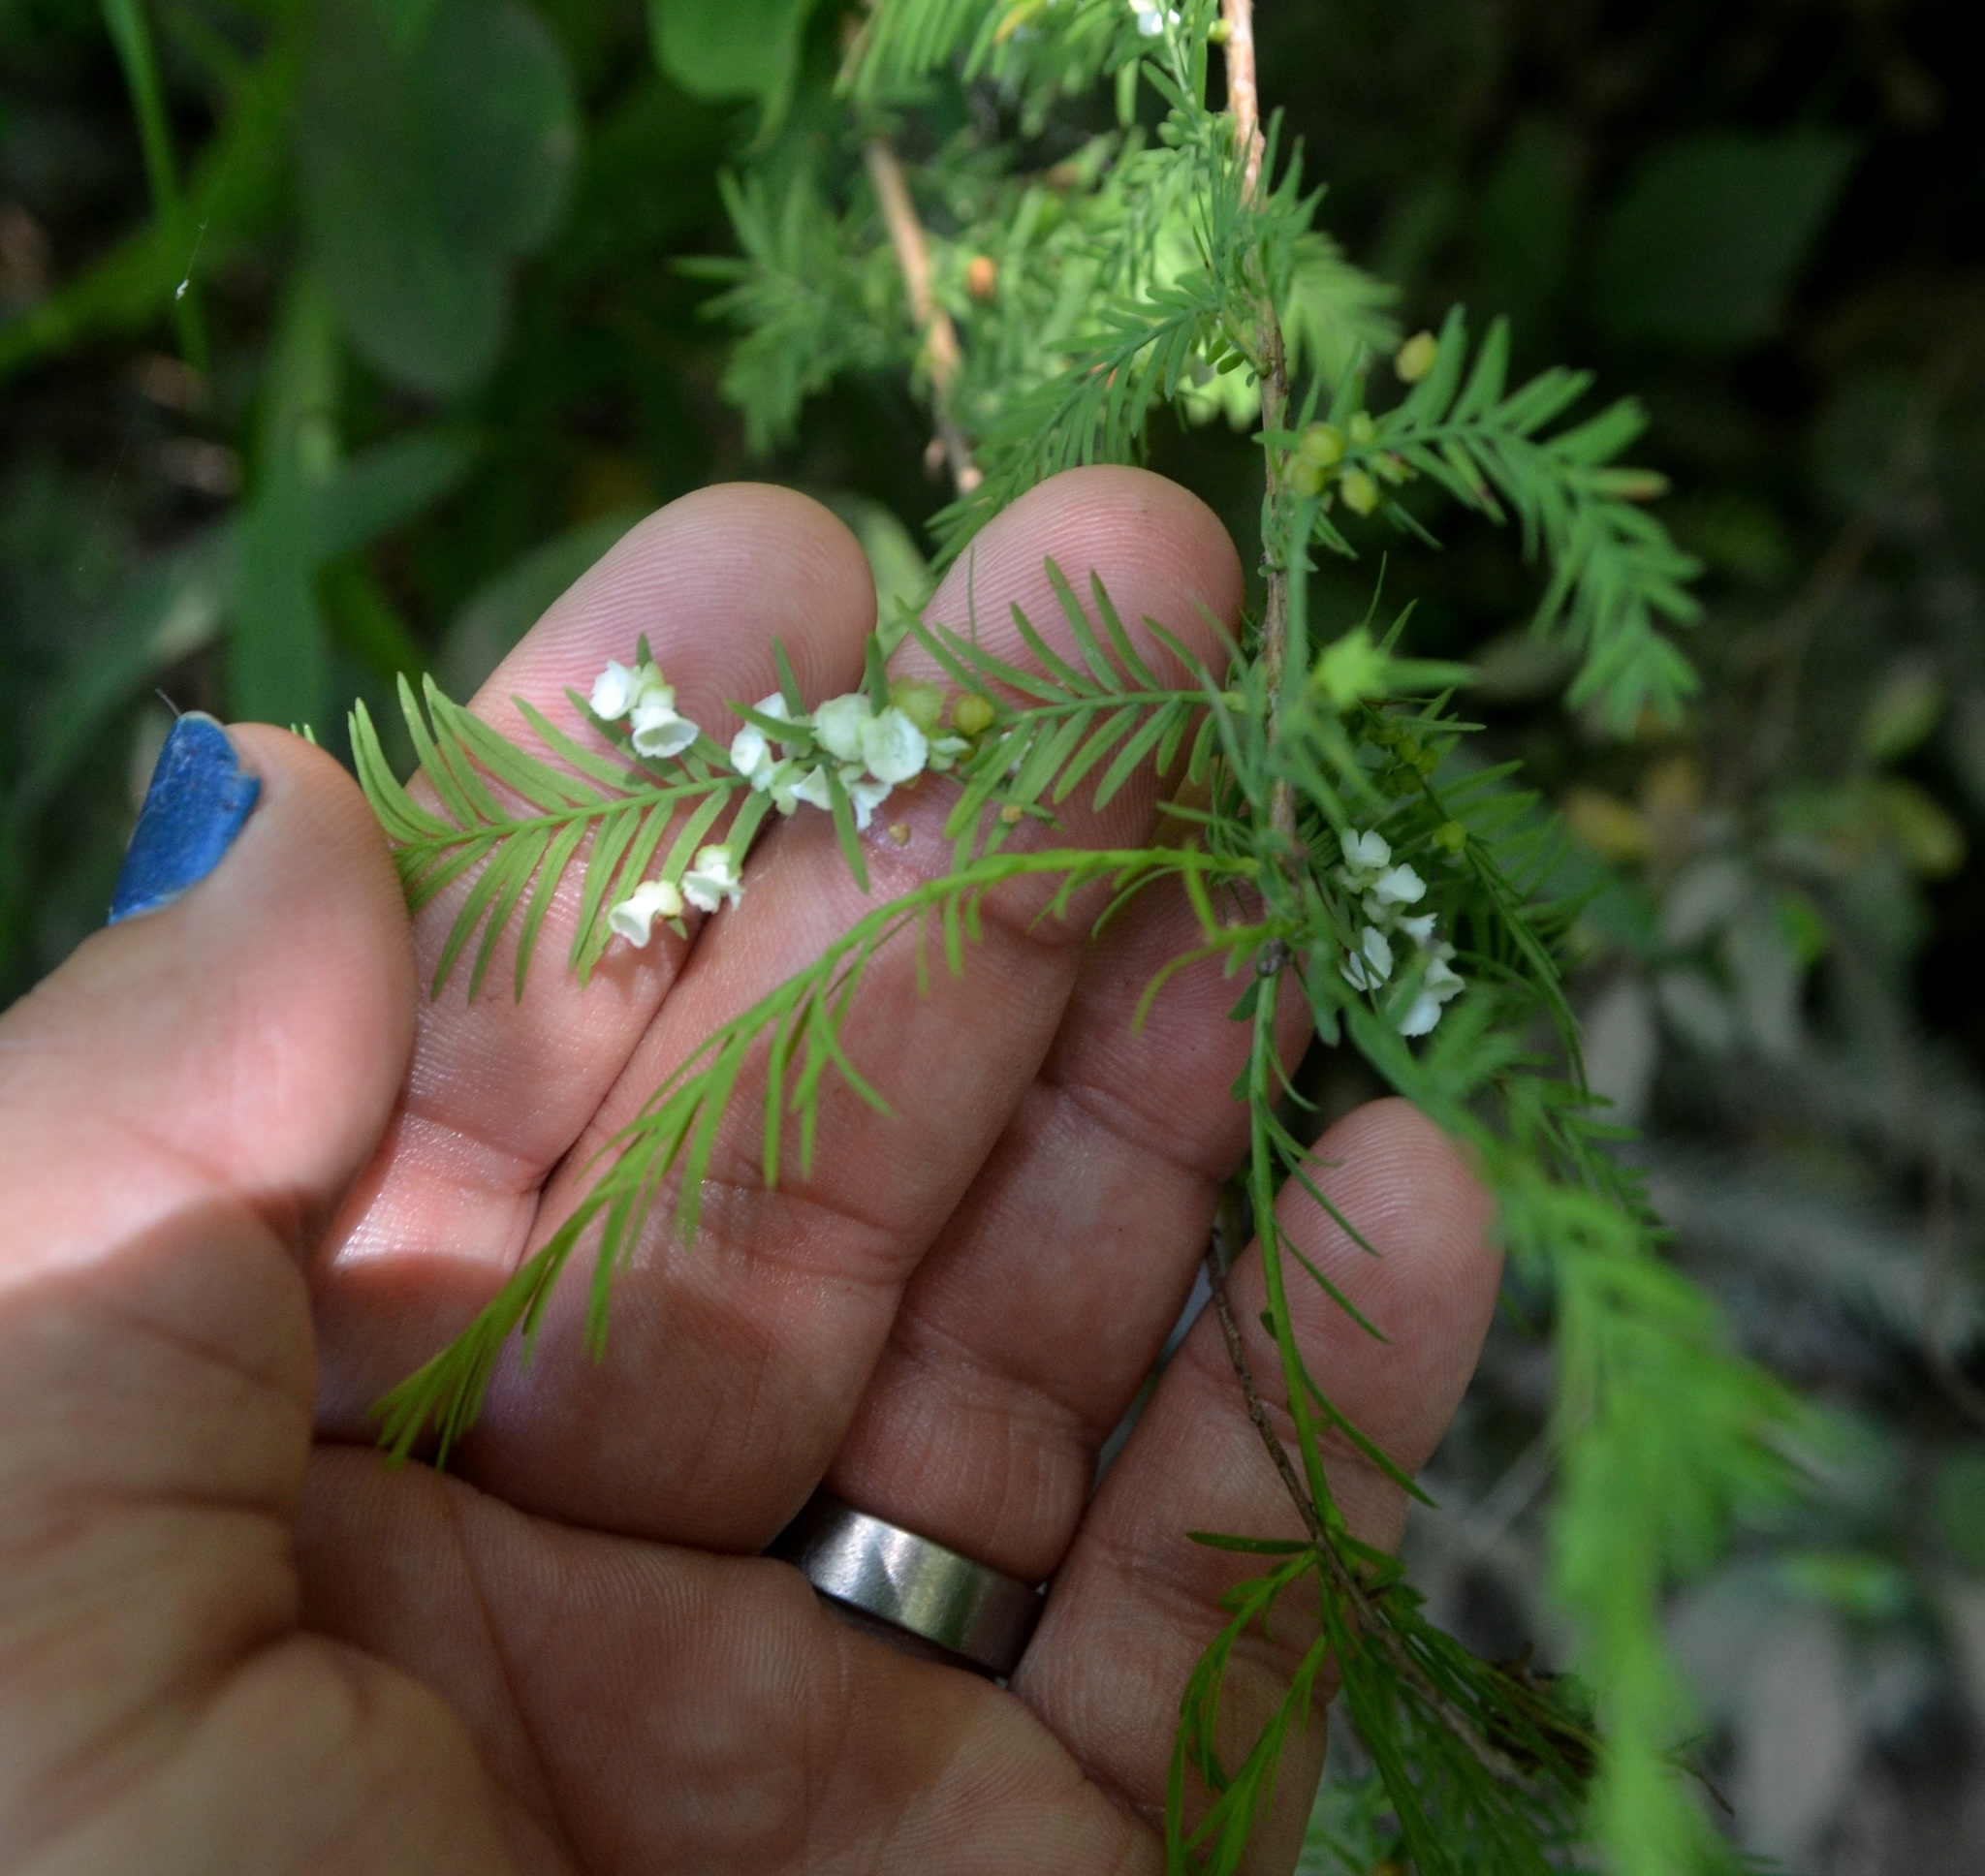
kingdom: Plantae
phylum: Tracheophyta
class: Pinopsida
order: Pinales
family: Cupressaceae
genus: Taxodium
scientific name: Taxodium distichum
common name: Bald cypress
